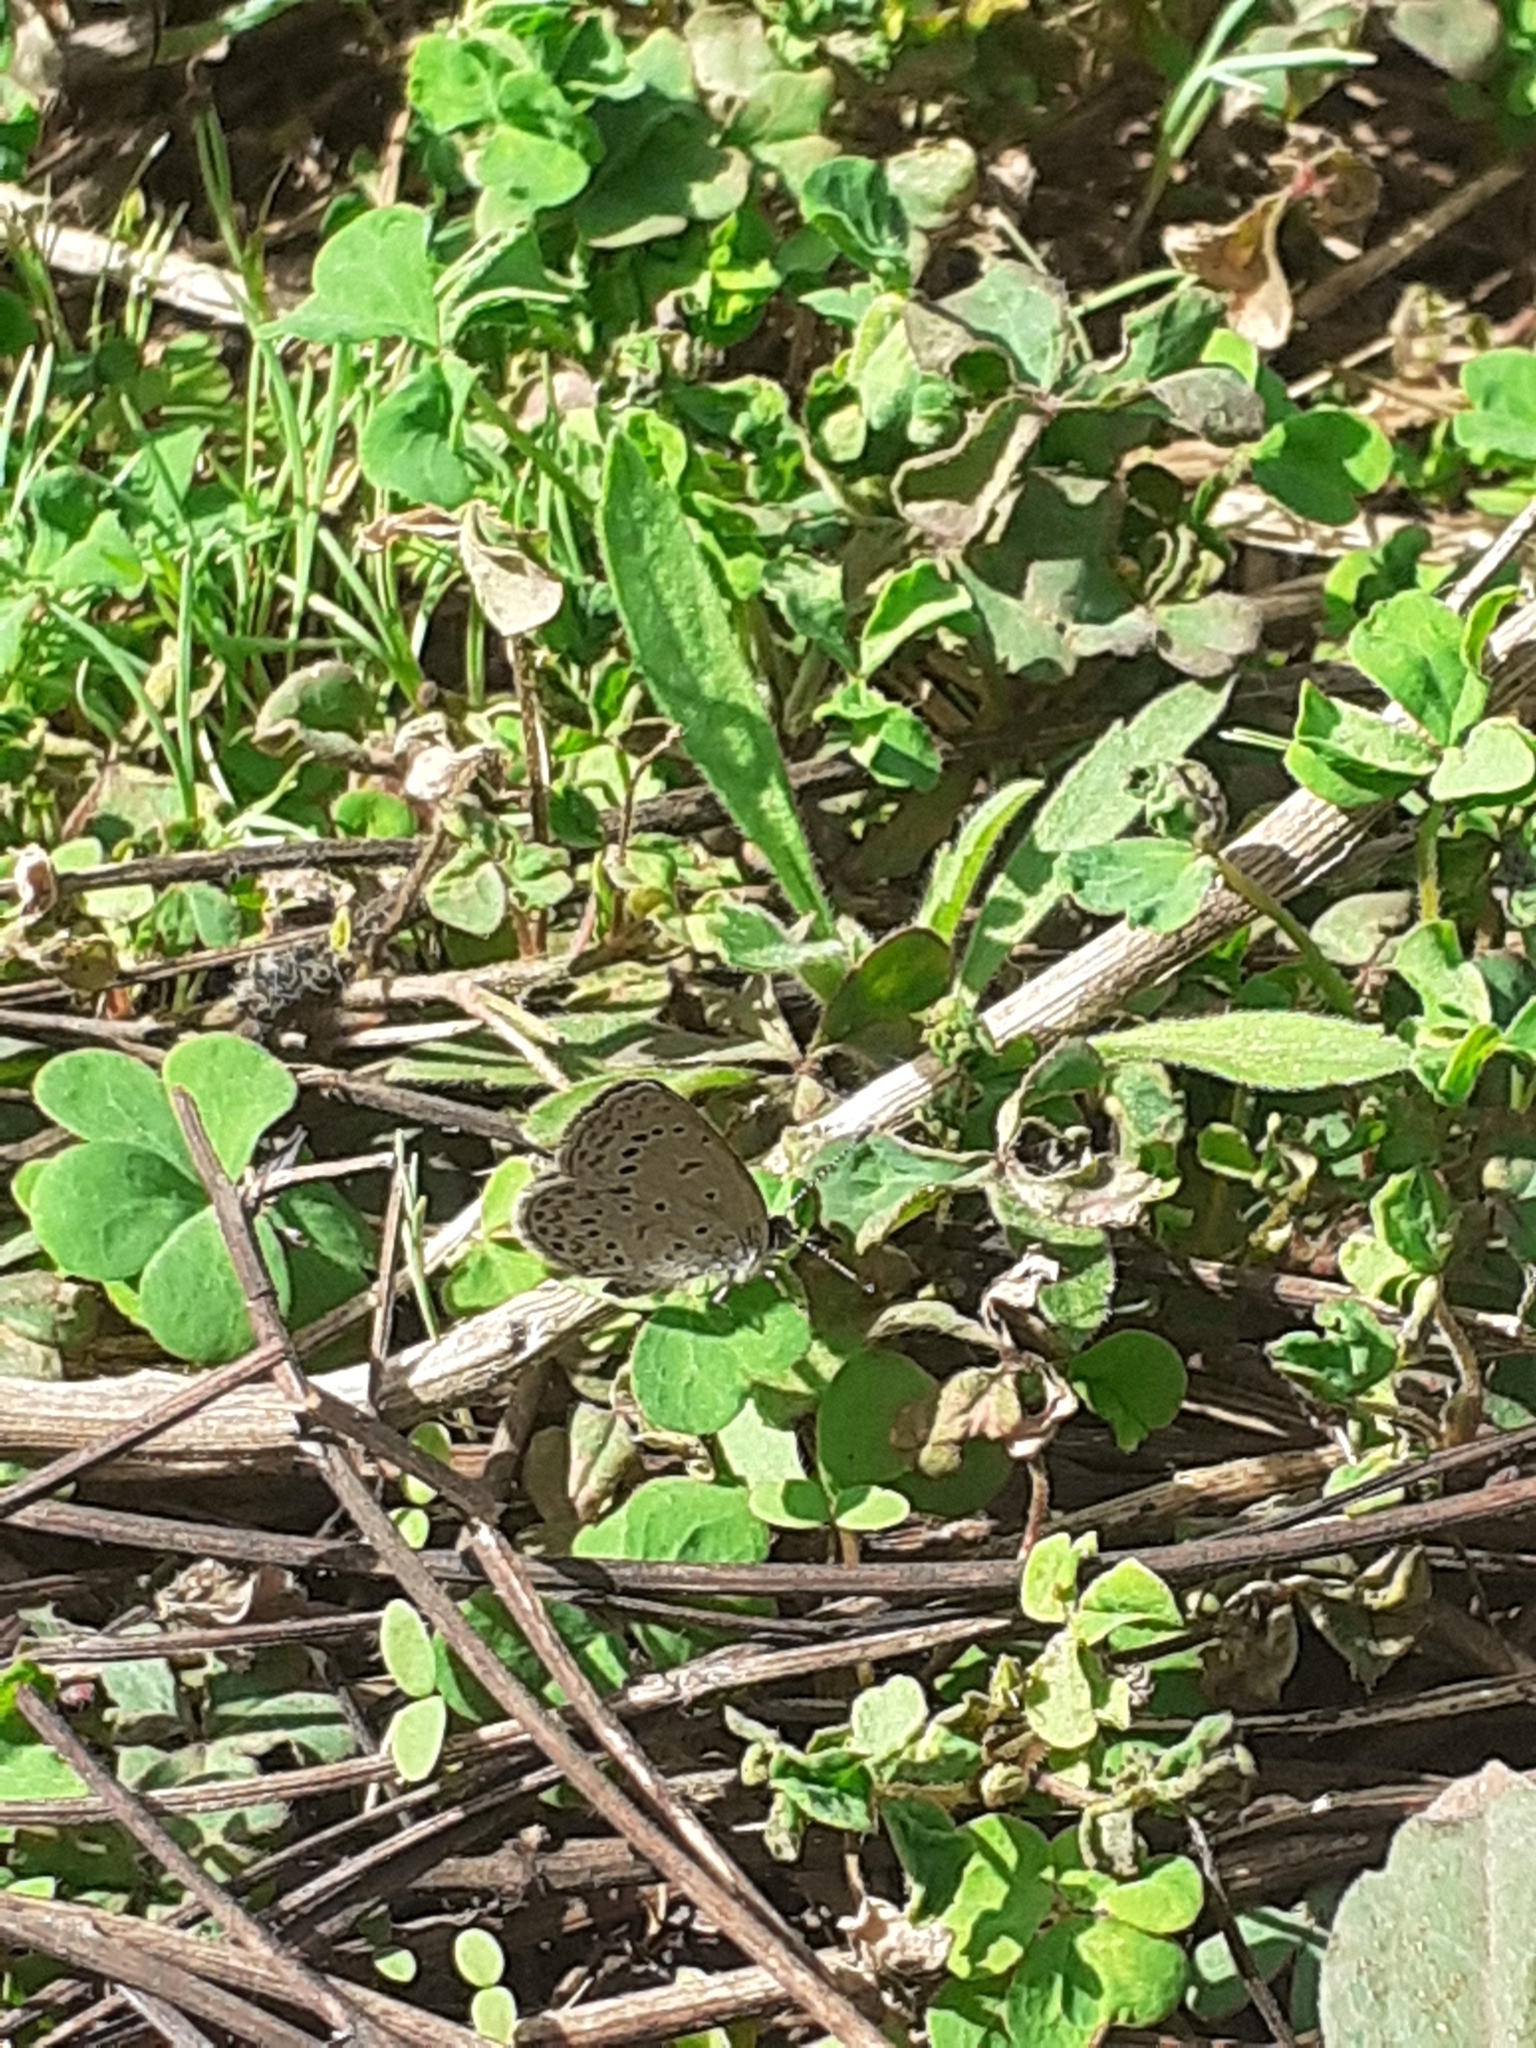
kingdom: Animalia
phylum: Arthropoda
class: Insecta
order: Lepidoptera
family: Lycaenidae
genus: Zizeeria
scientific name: Zizeeria knysna
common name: African grass blue
